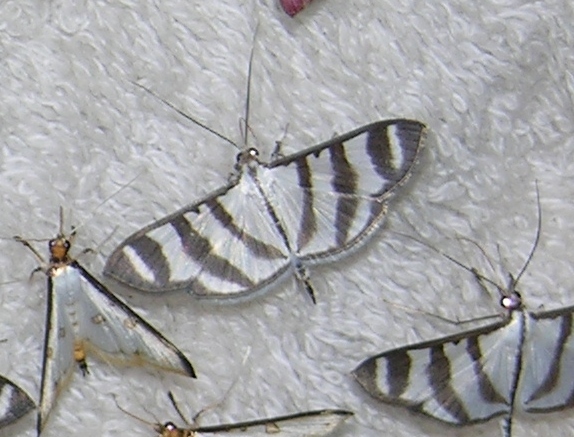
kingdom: Animalia
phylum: Arthropoda
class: Insecta
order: Lepidoptera
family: Crambidae
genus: Zebronia
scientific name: Zebronia phenice
